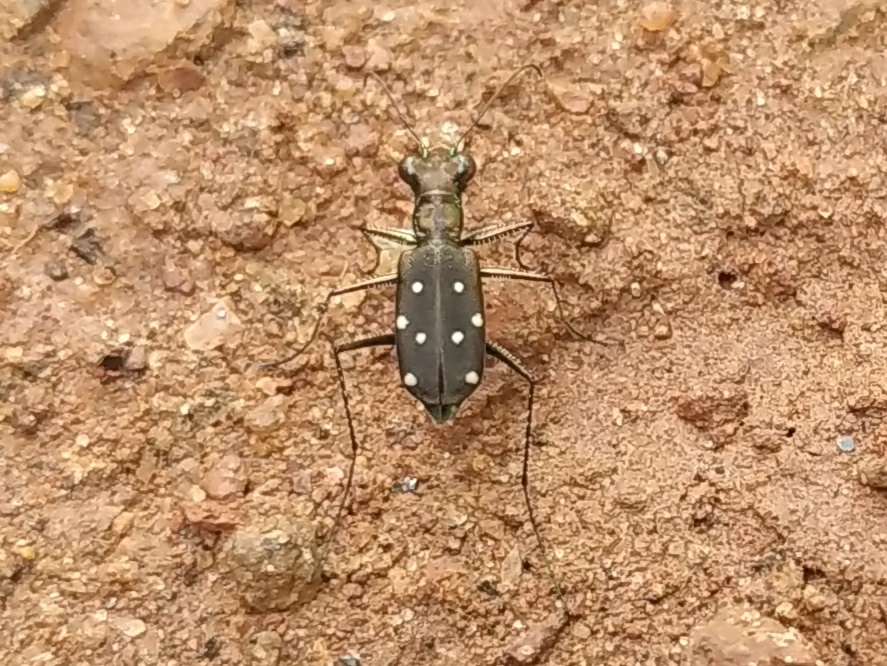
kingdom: Animalia
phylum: Arthropoda
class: Insecta
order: Coleoptera
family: Carabidae
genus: Cylindera
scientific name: Cylindera collicia
